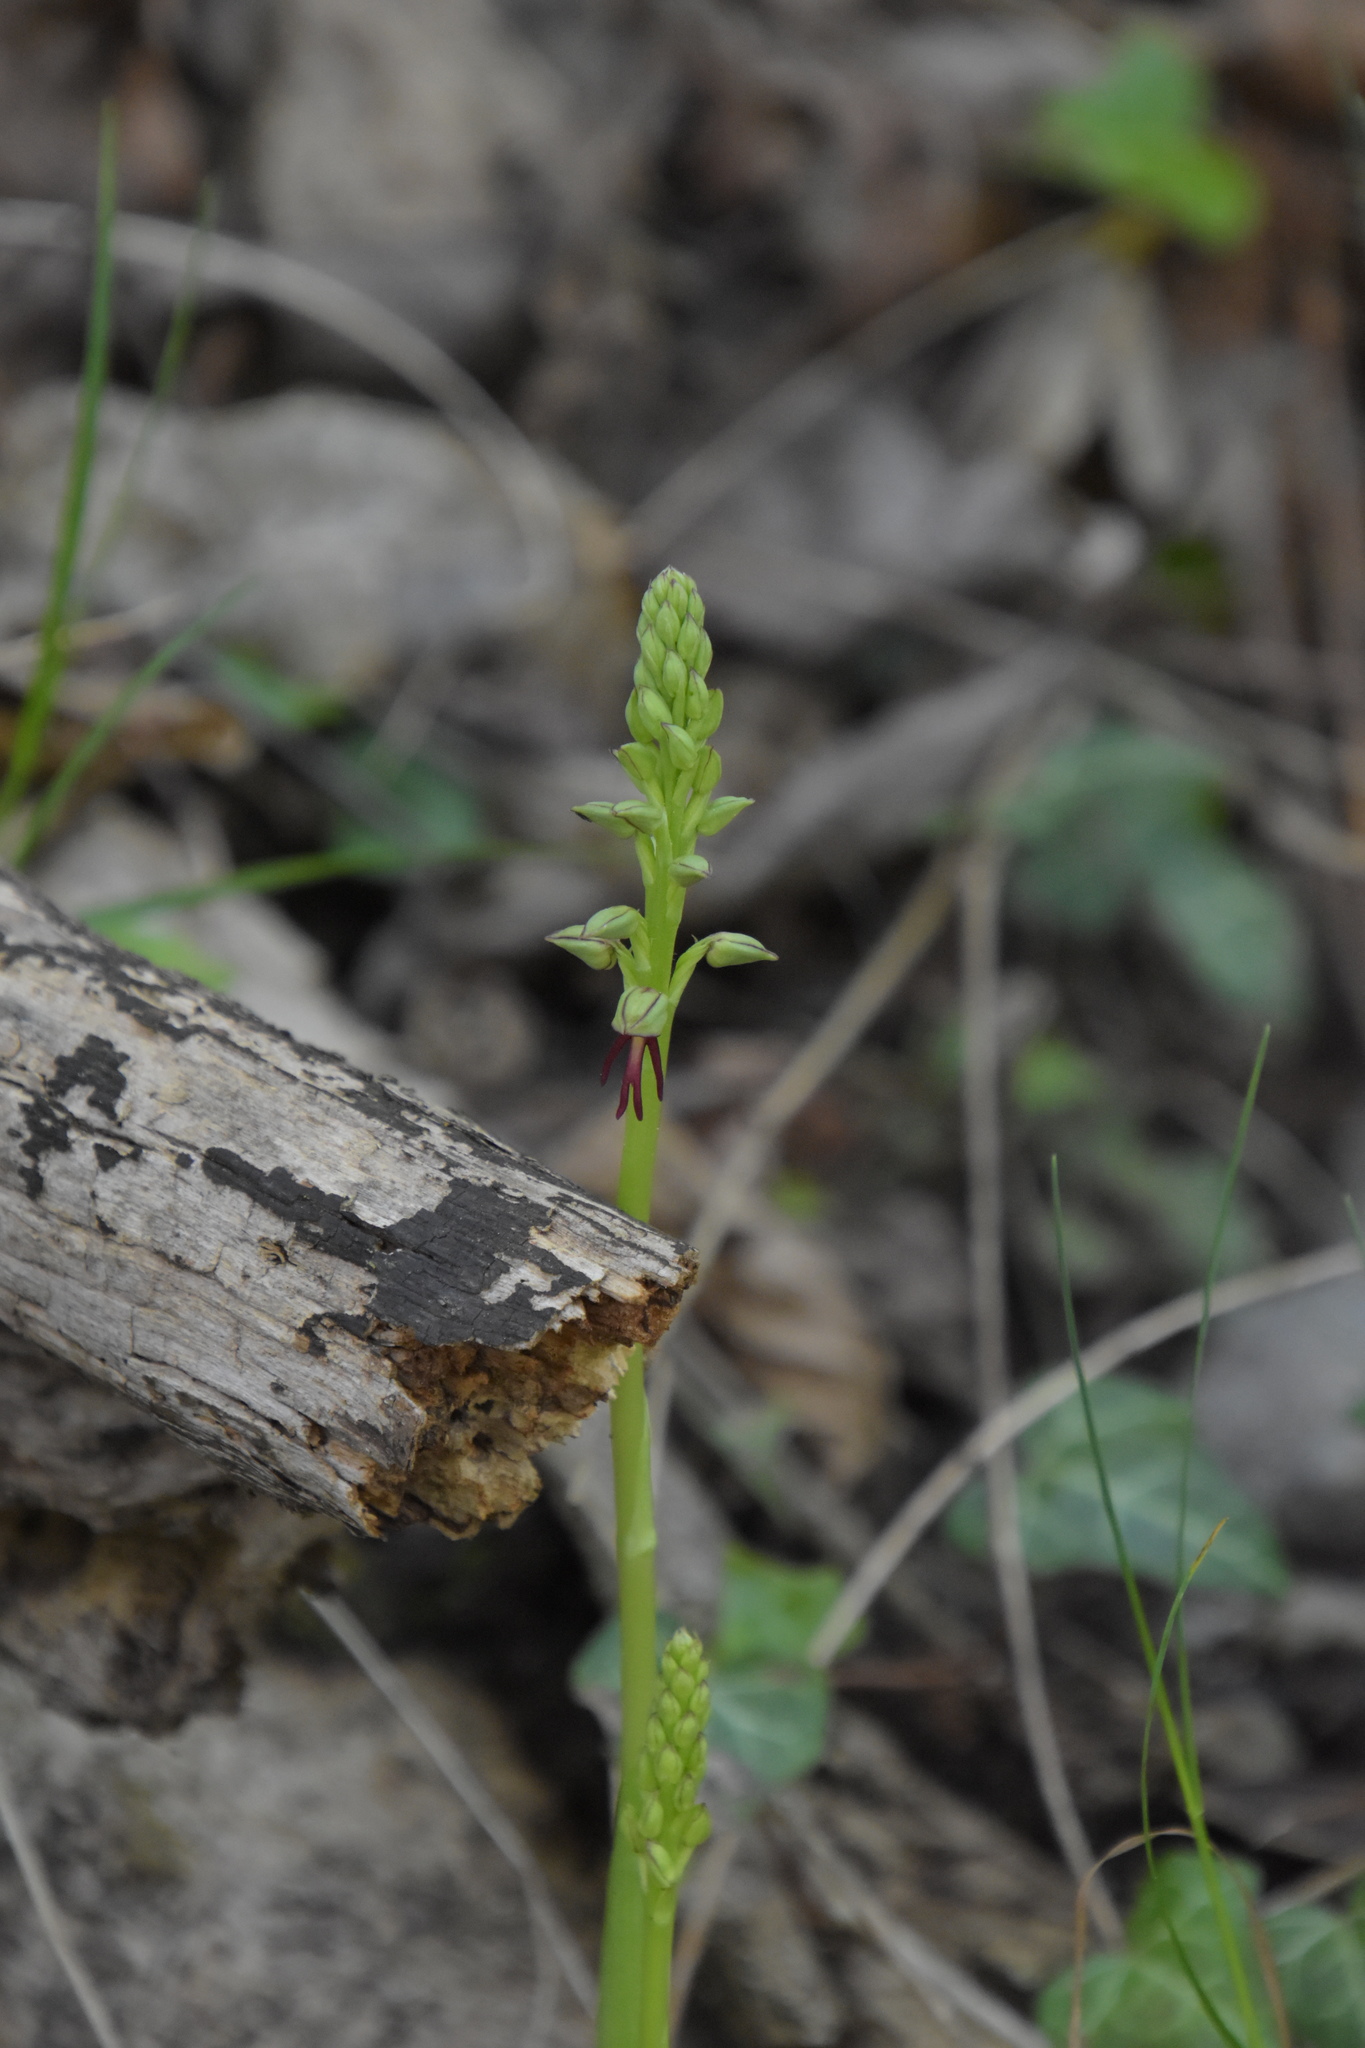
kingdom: Plantae
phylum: Tracheophyta
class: Liliopsida
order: Asparagales
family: Orchidaceae
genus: Orchis
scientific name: Orchis anthropophora
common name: Man orchid
